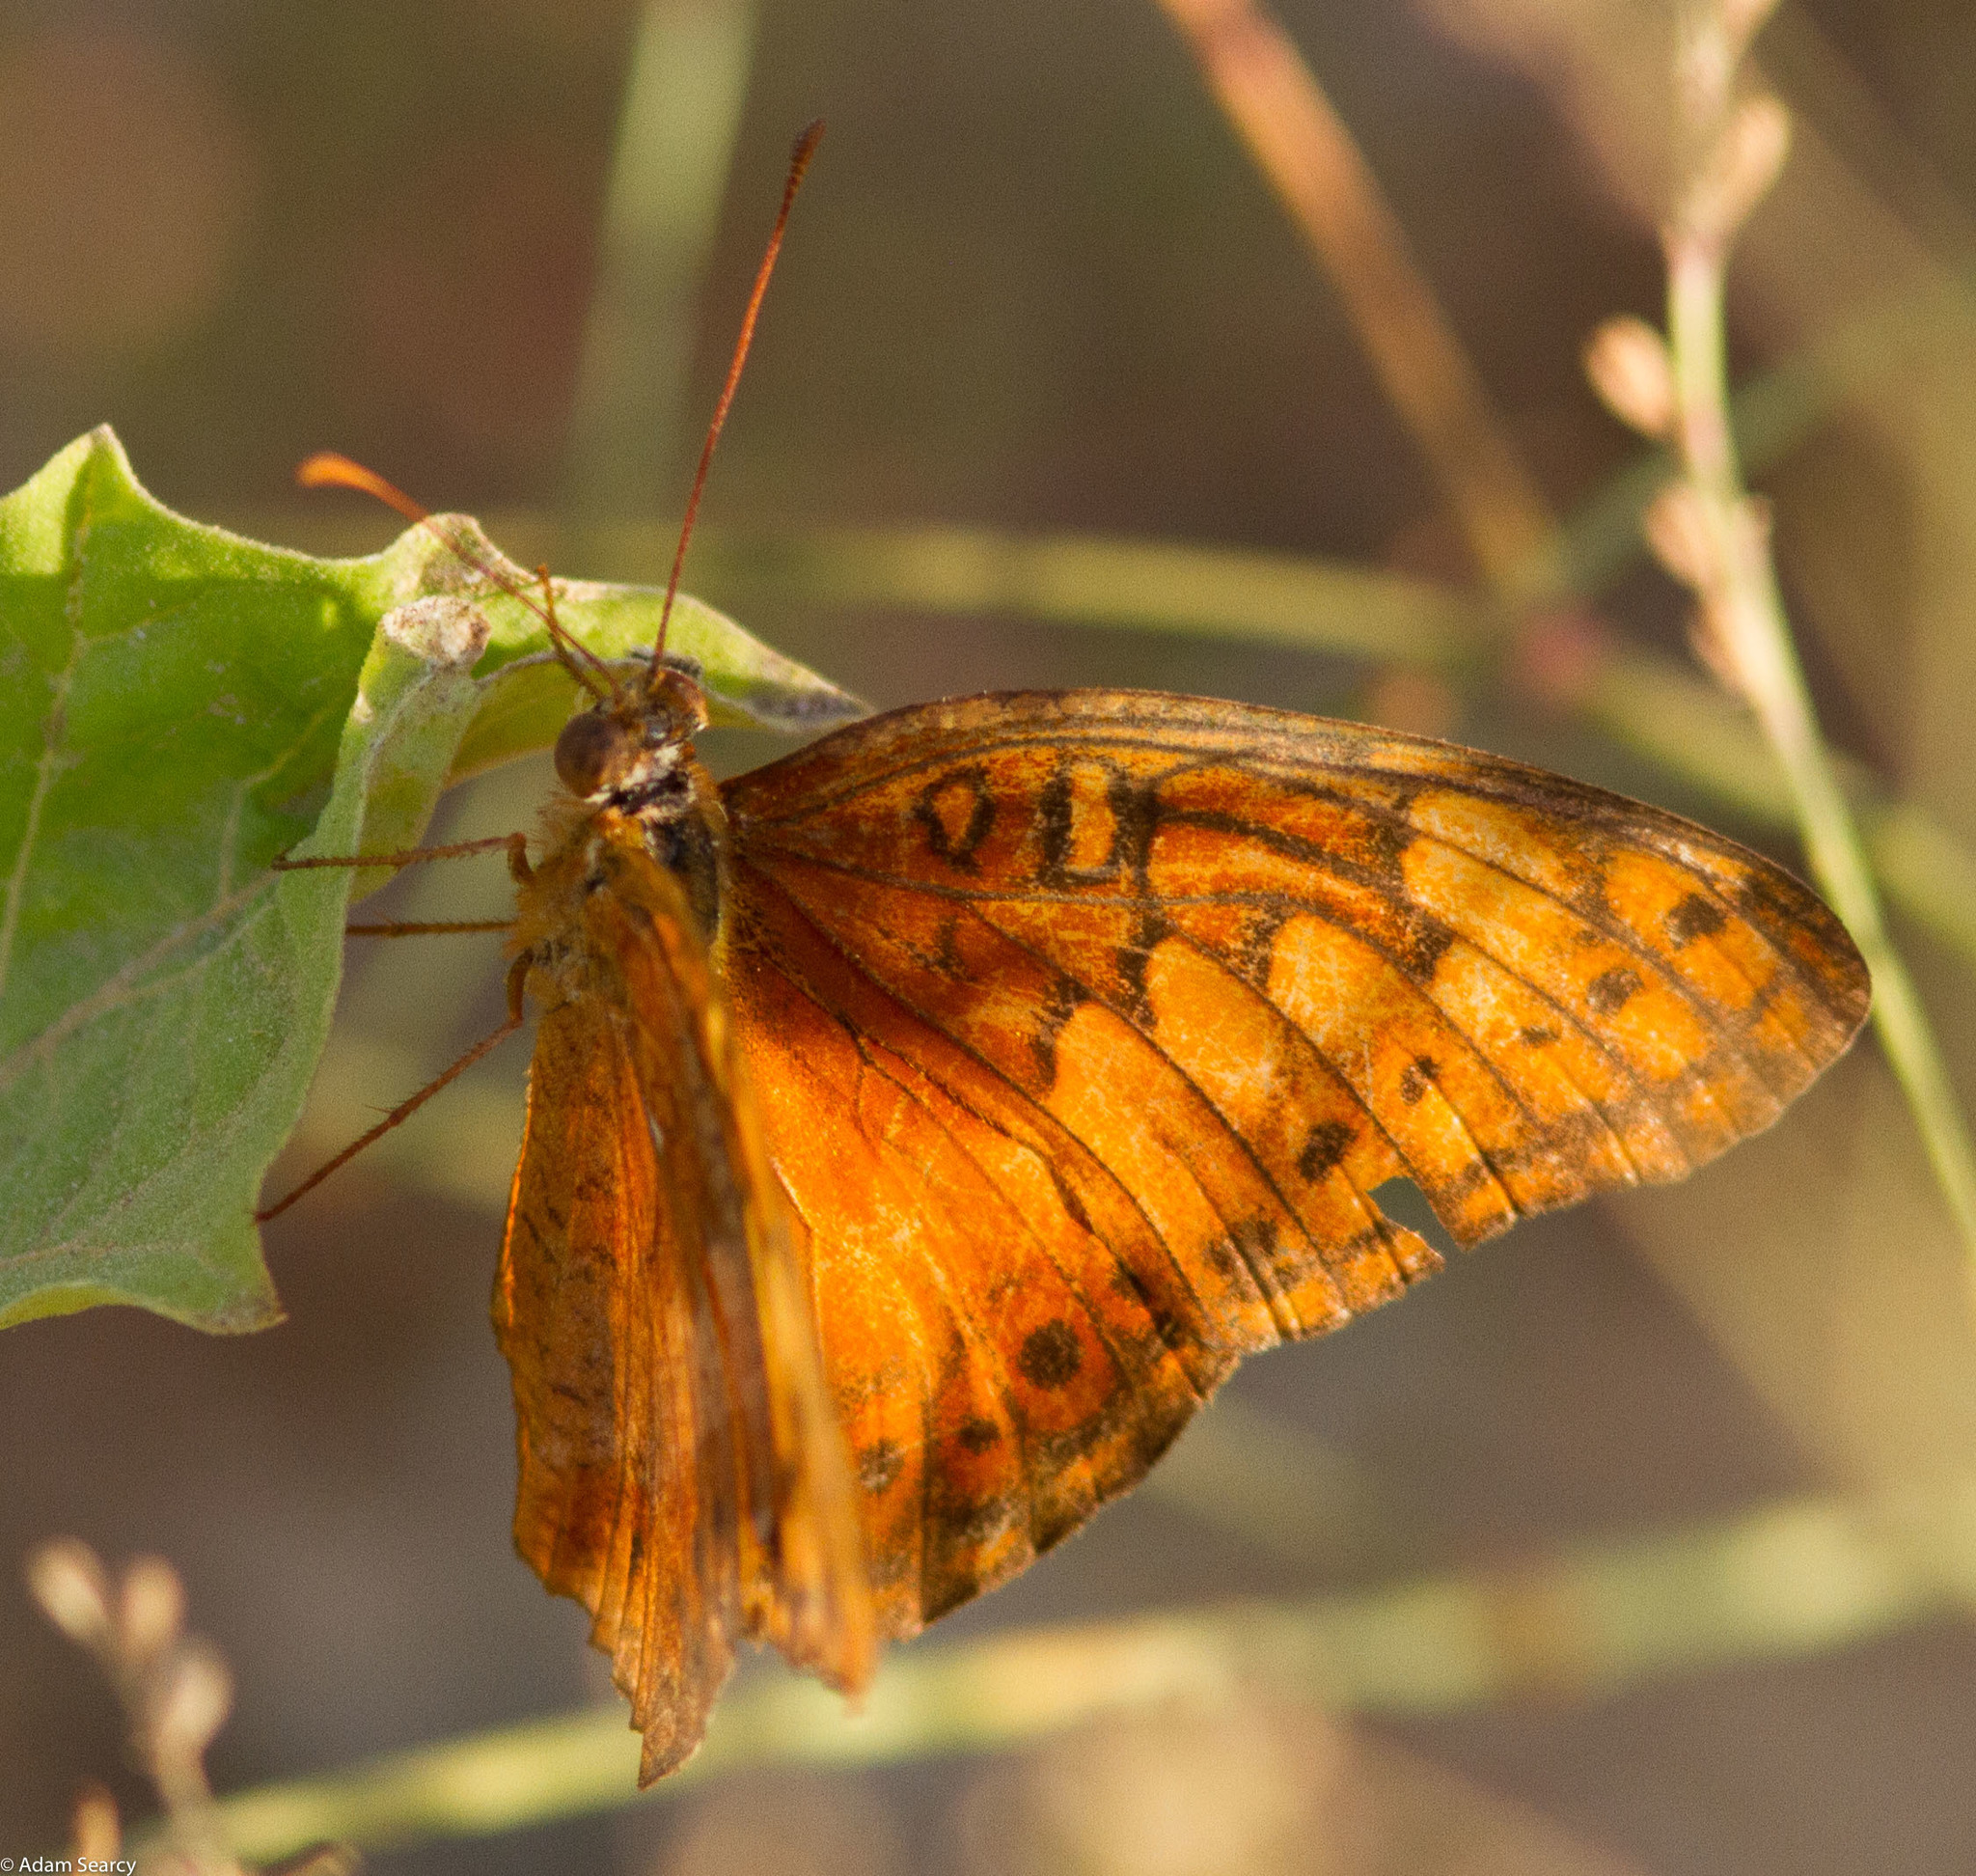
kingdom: Animalia
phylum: Arthropoda
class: Insecta
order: Lepidoptera
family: Nymphalidae
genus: Euptoieta
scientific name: Euptoieta hegesia
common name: Mexican fritillary
